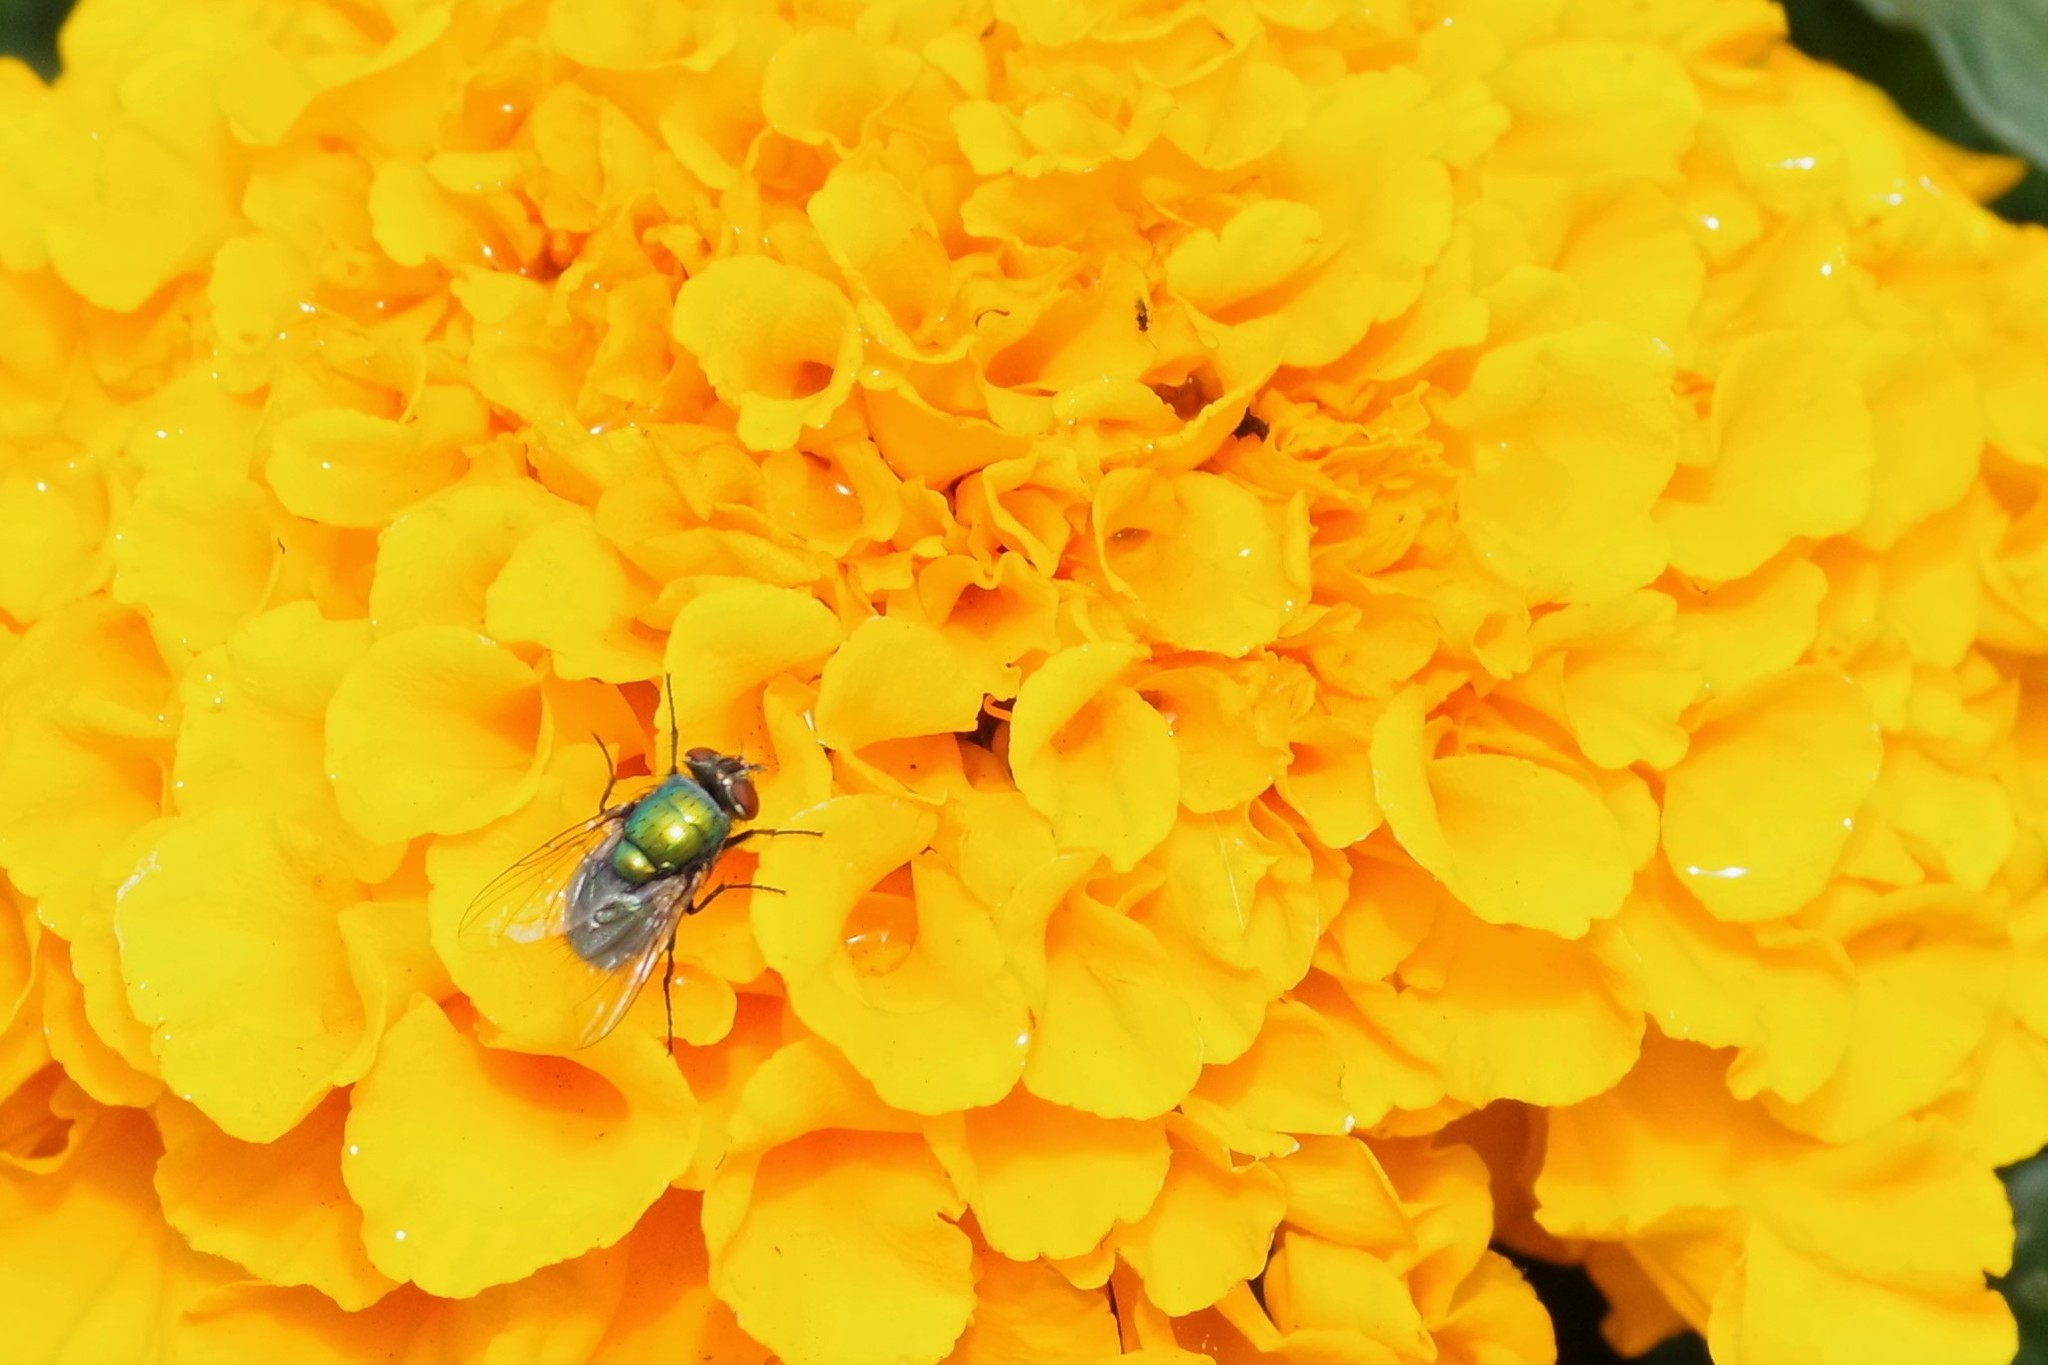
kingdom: Animalia
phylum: Arthropoda
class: Insecta
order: Diptera
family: Calliphoridae
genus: Lucilia
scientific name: Lucilia sericata
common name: Blow fly
